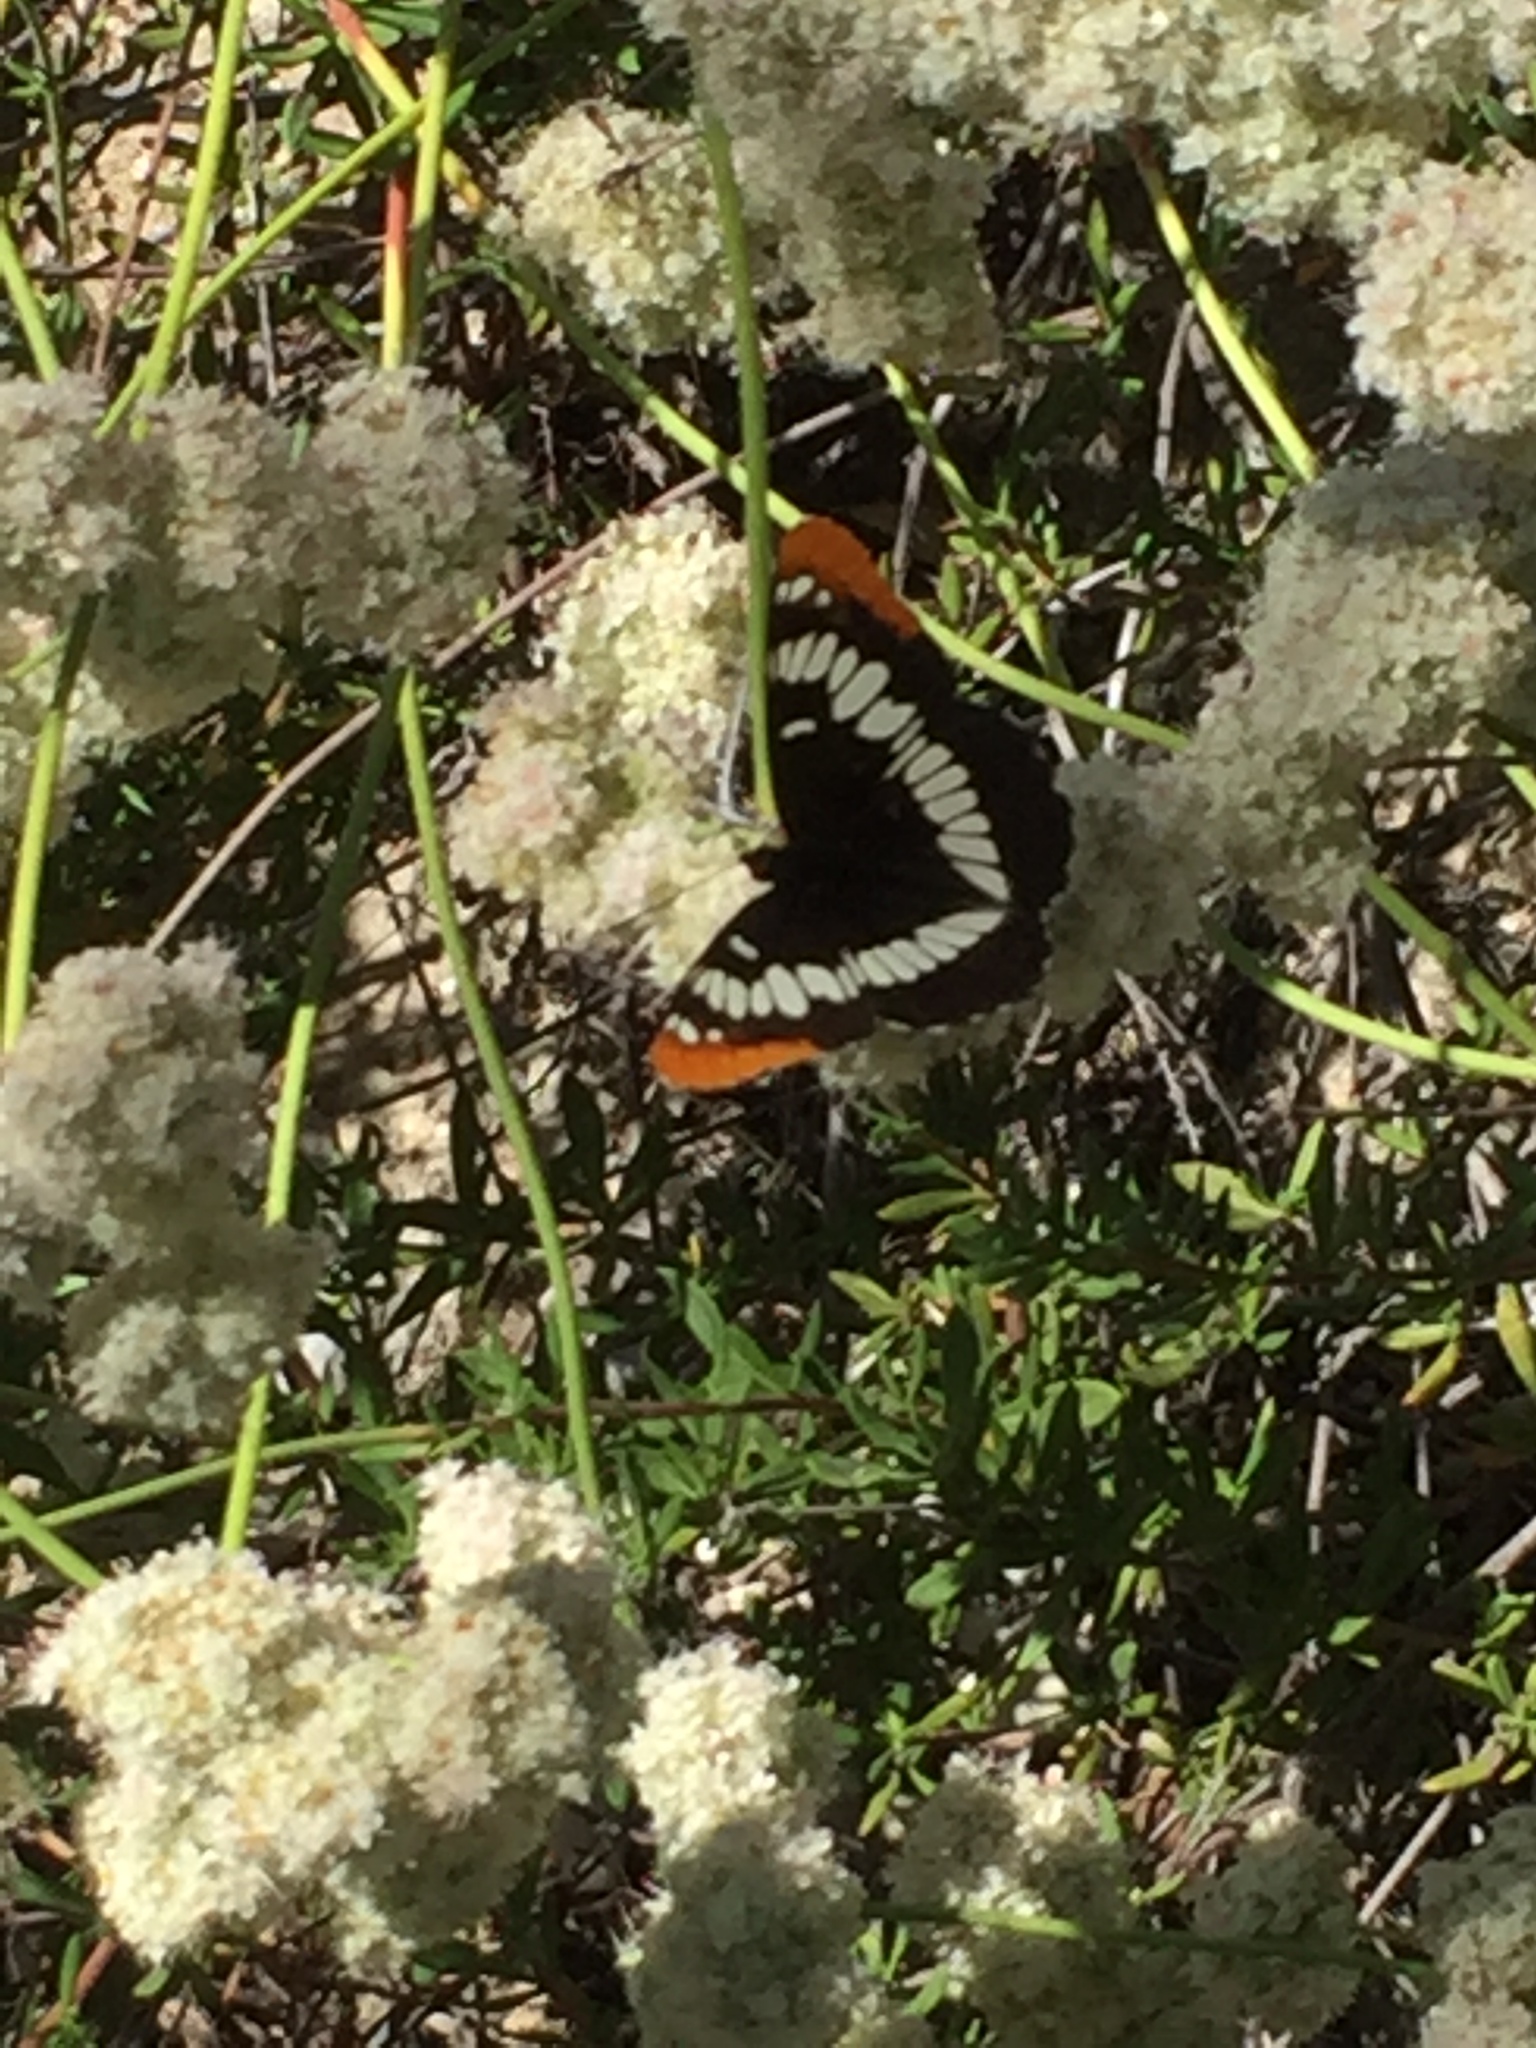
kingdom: Animalia
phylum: Arthropoda
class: Insecta
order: Lepidoptera
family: Nymphalidae
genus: Limenitis
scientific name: Limenitis lorquini
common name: Lorquin's admiral
